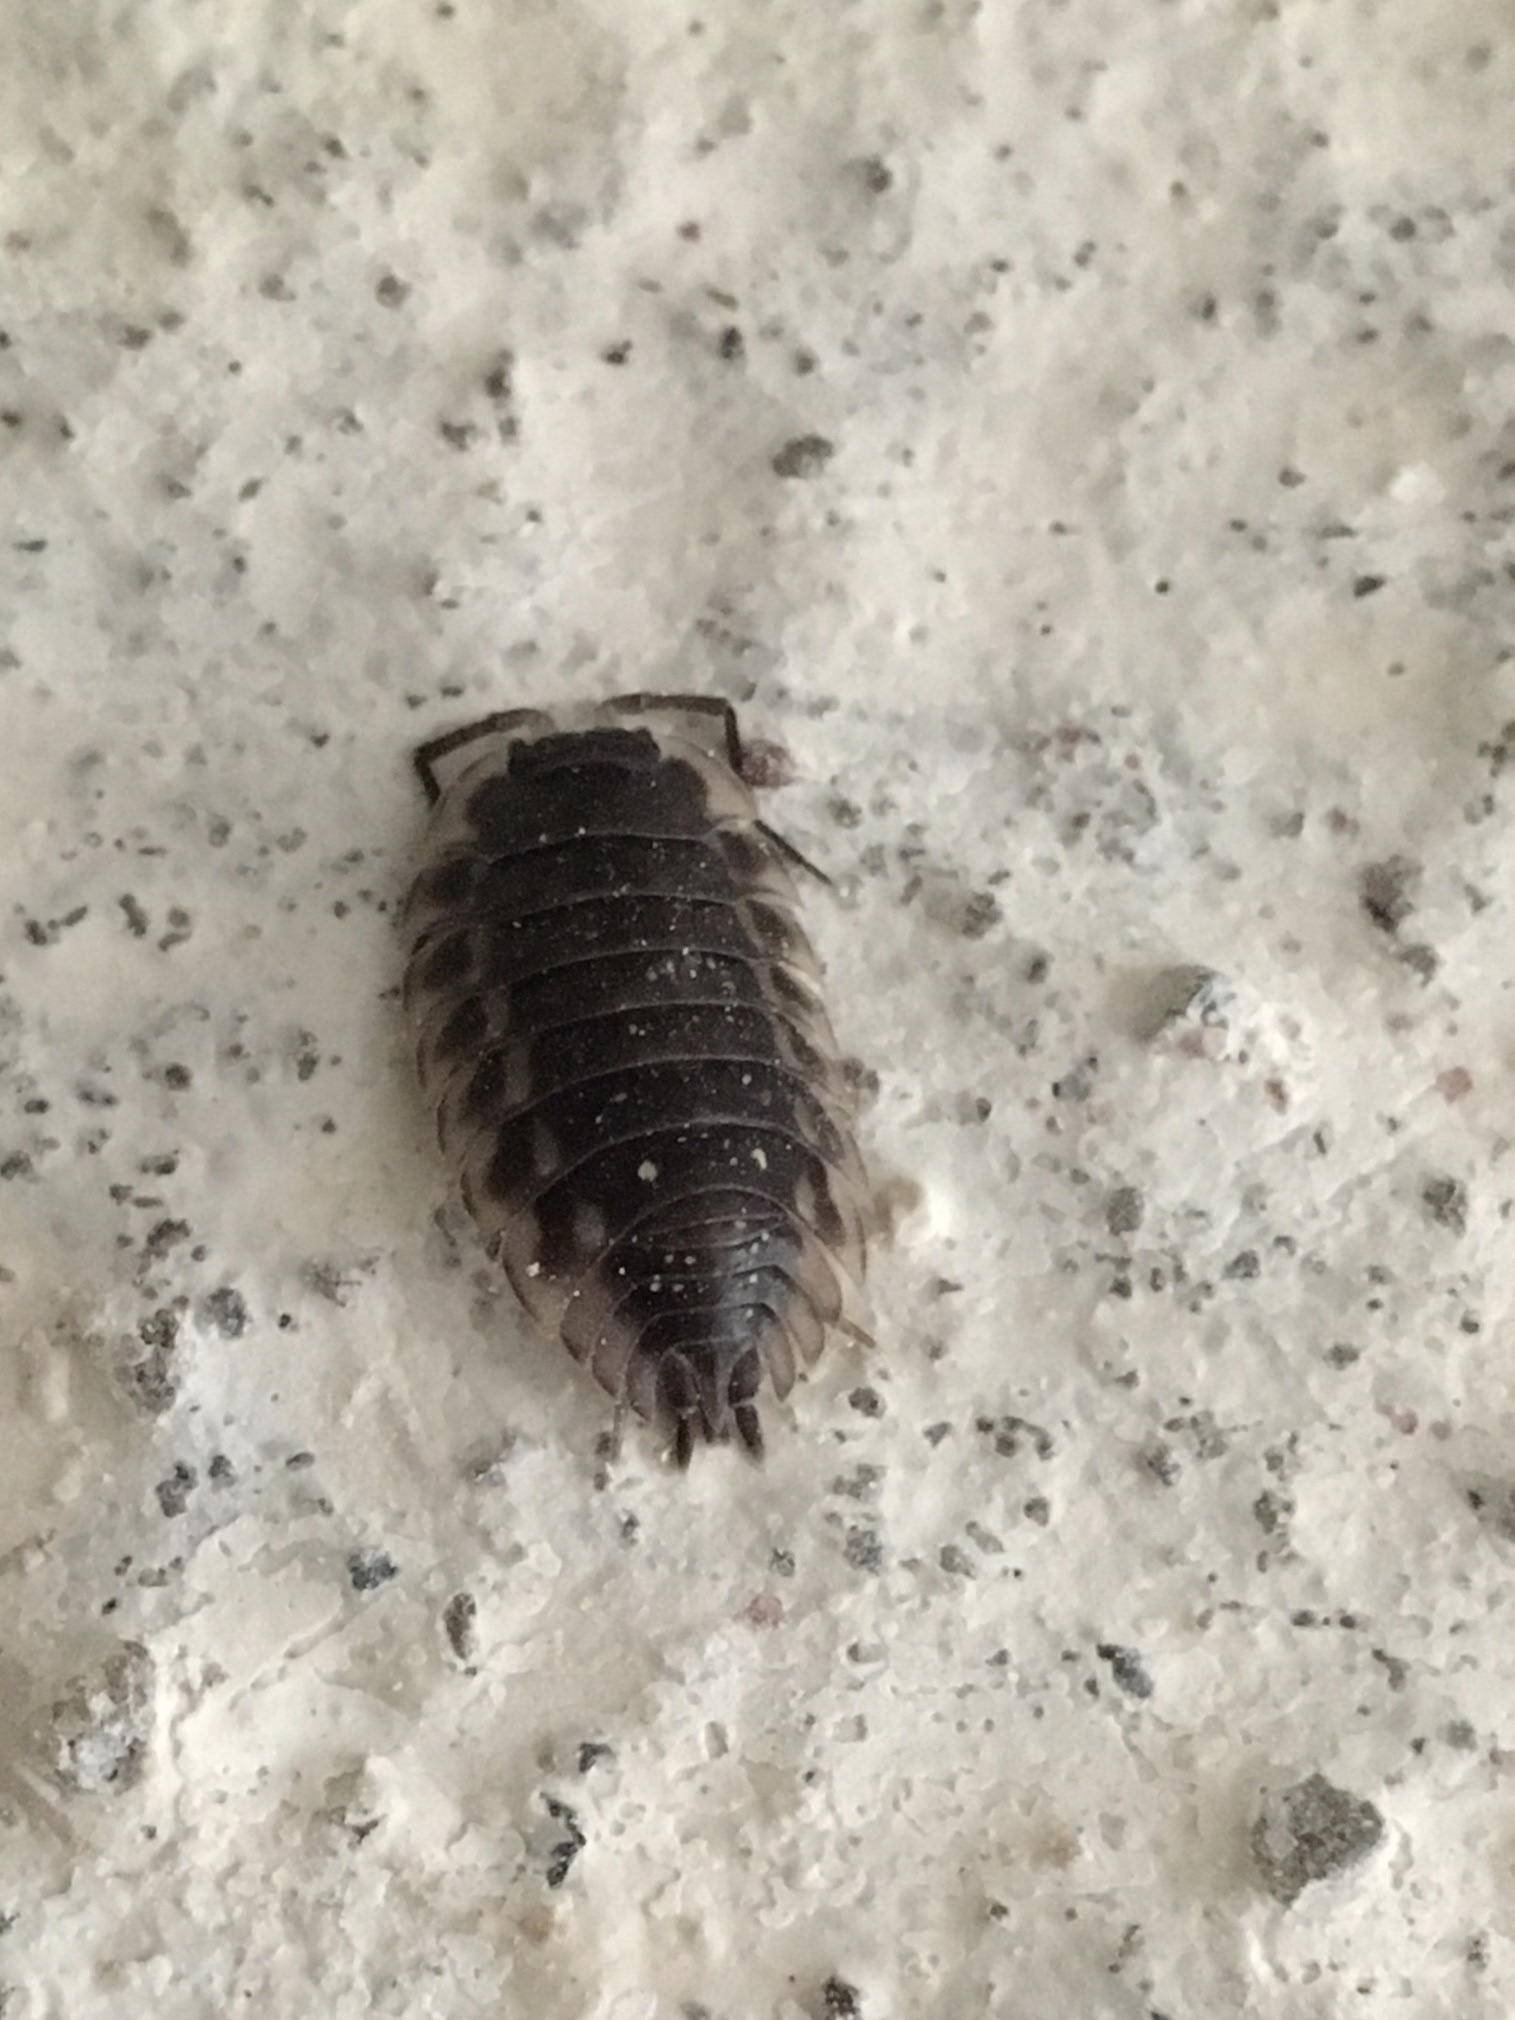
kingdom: Animalia
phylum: Arthropoda
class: Malacostraca
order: Isopoda
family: Oniscidae
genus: Oniscus
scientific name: Oniscus asellus
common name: Common shiny woodlouse
